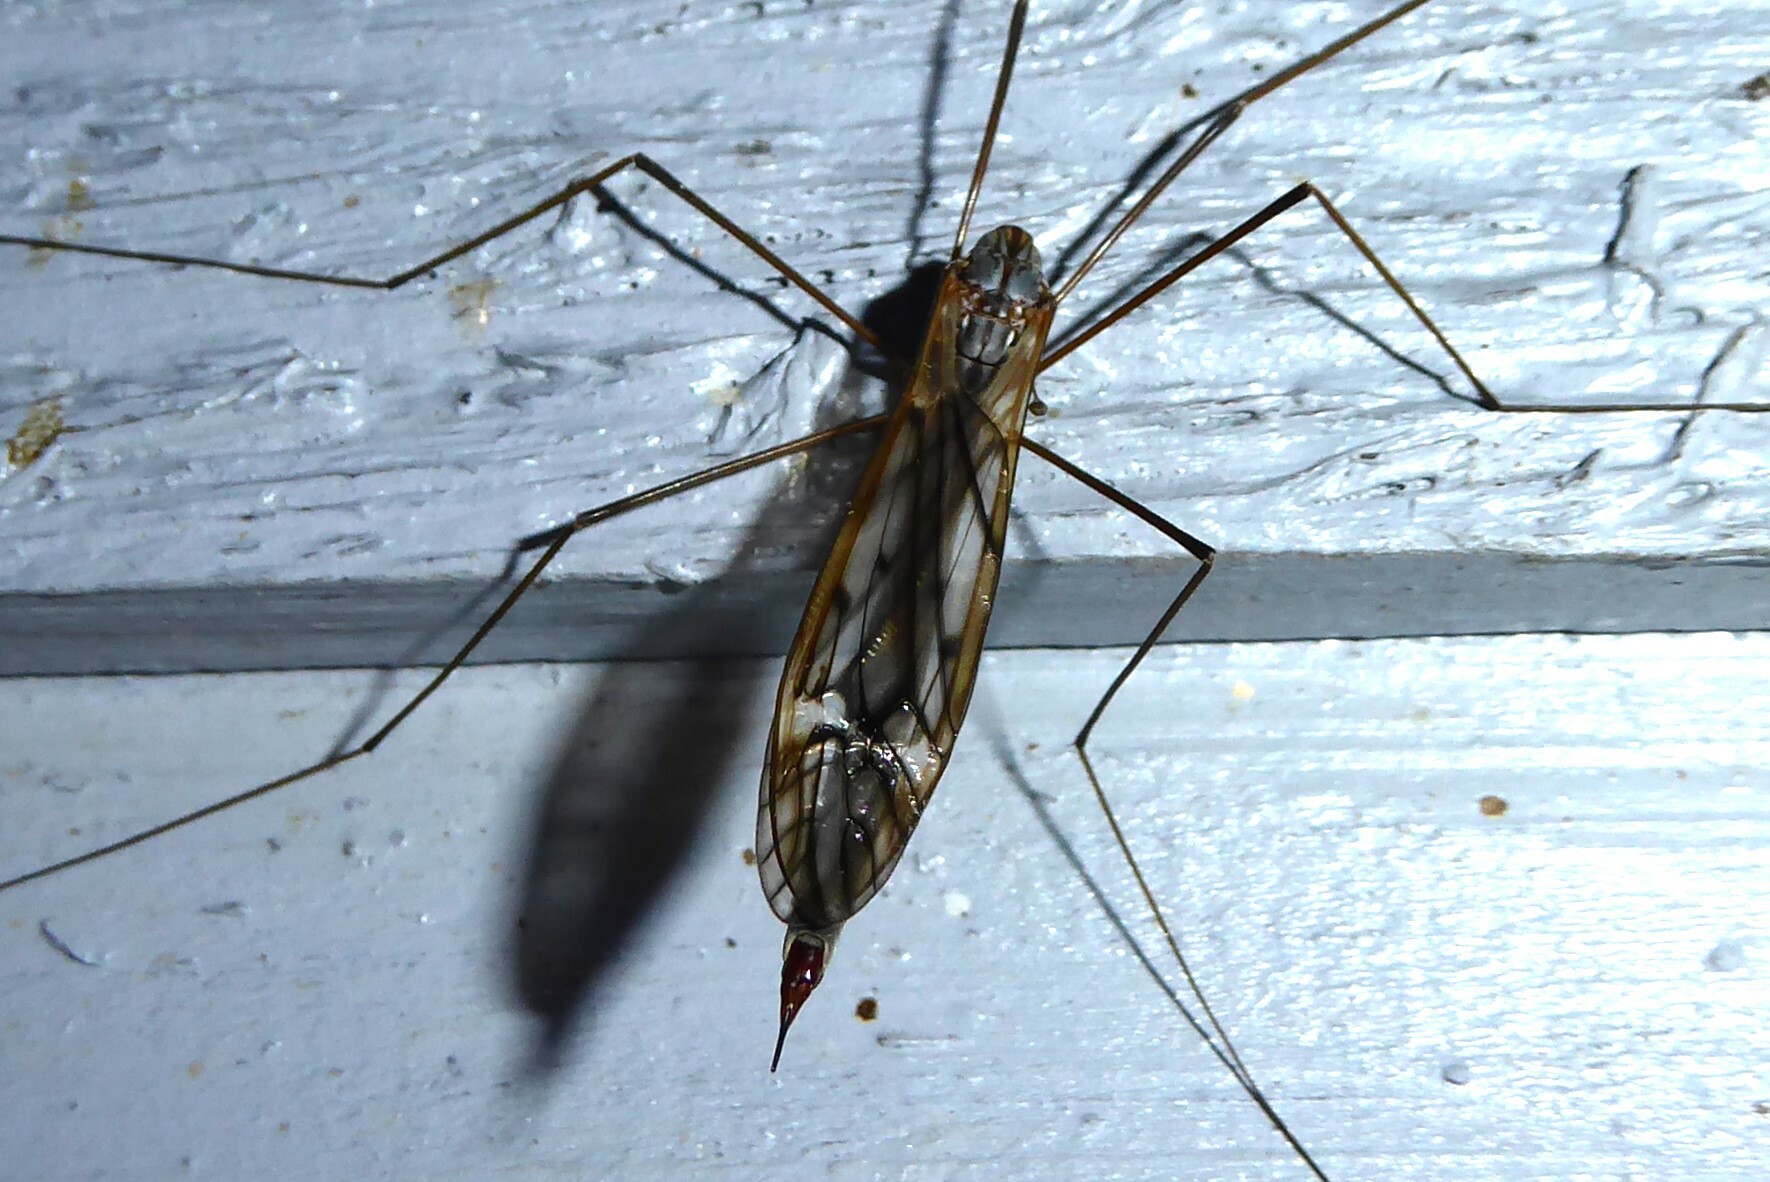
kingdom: Animalia
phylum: Arthropoda
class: Insecta
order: Diptera
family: Tipulidae
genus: Zelandotipula
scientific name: Zelandotipula novarae
